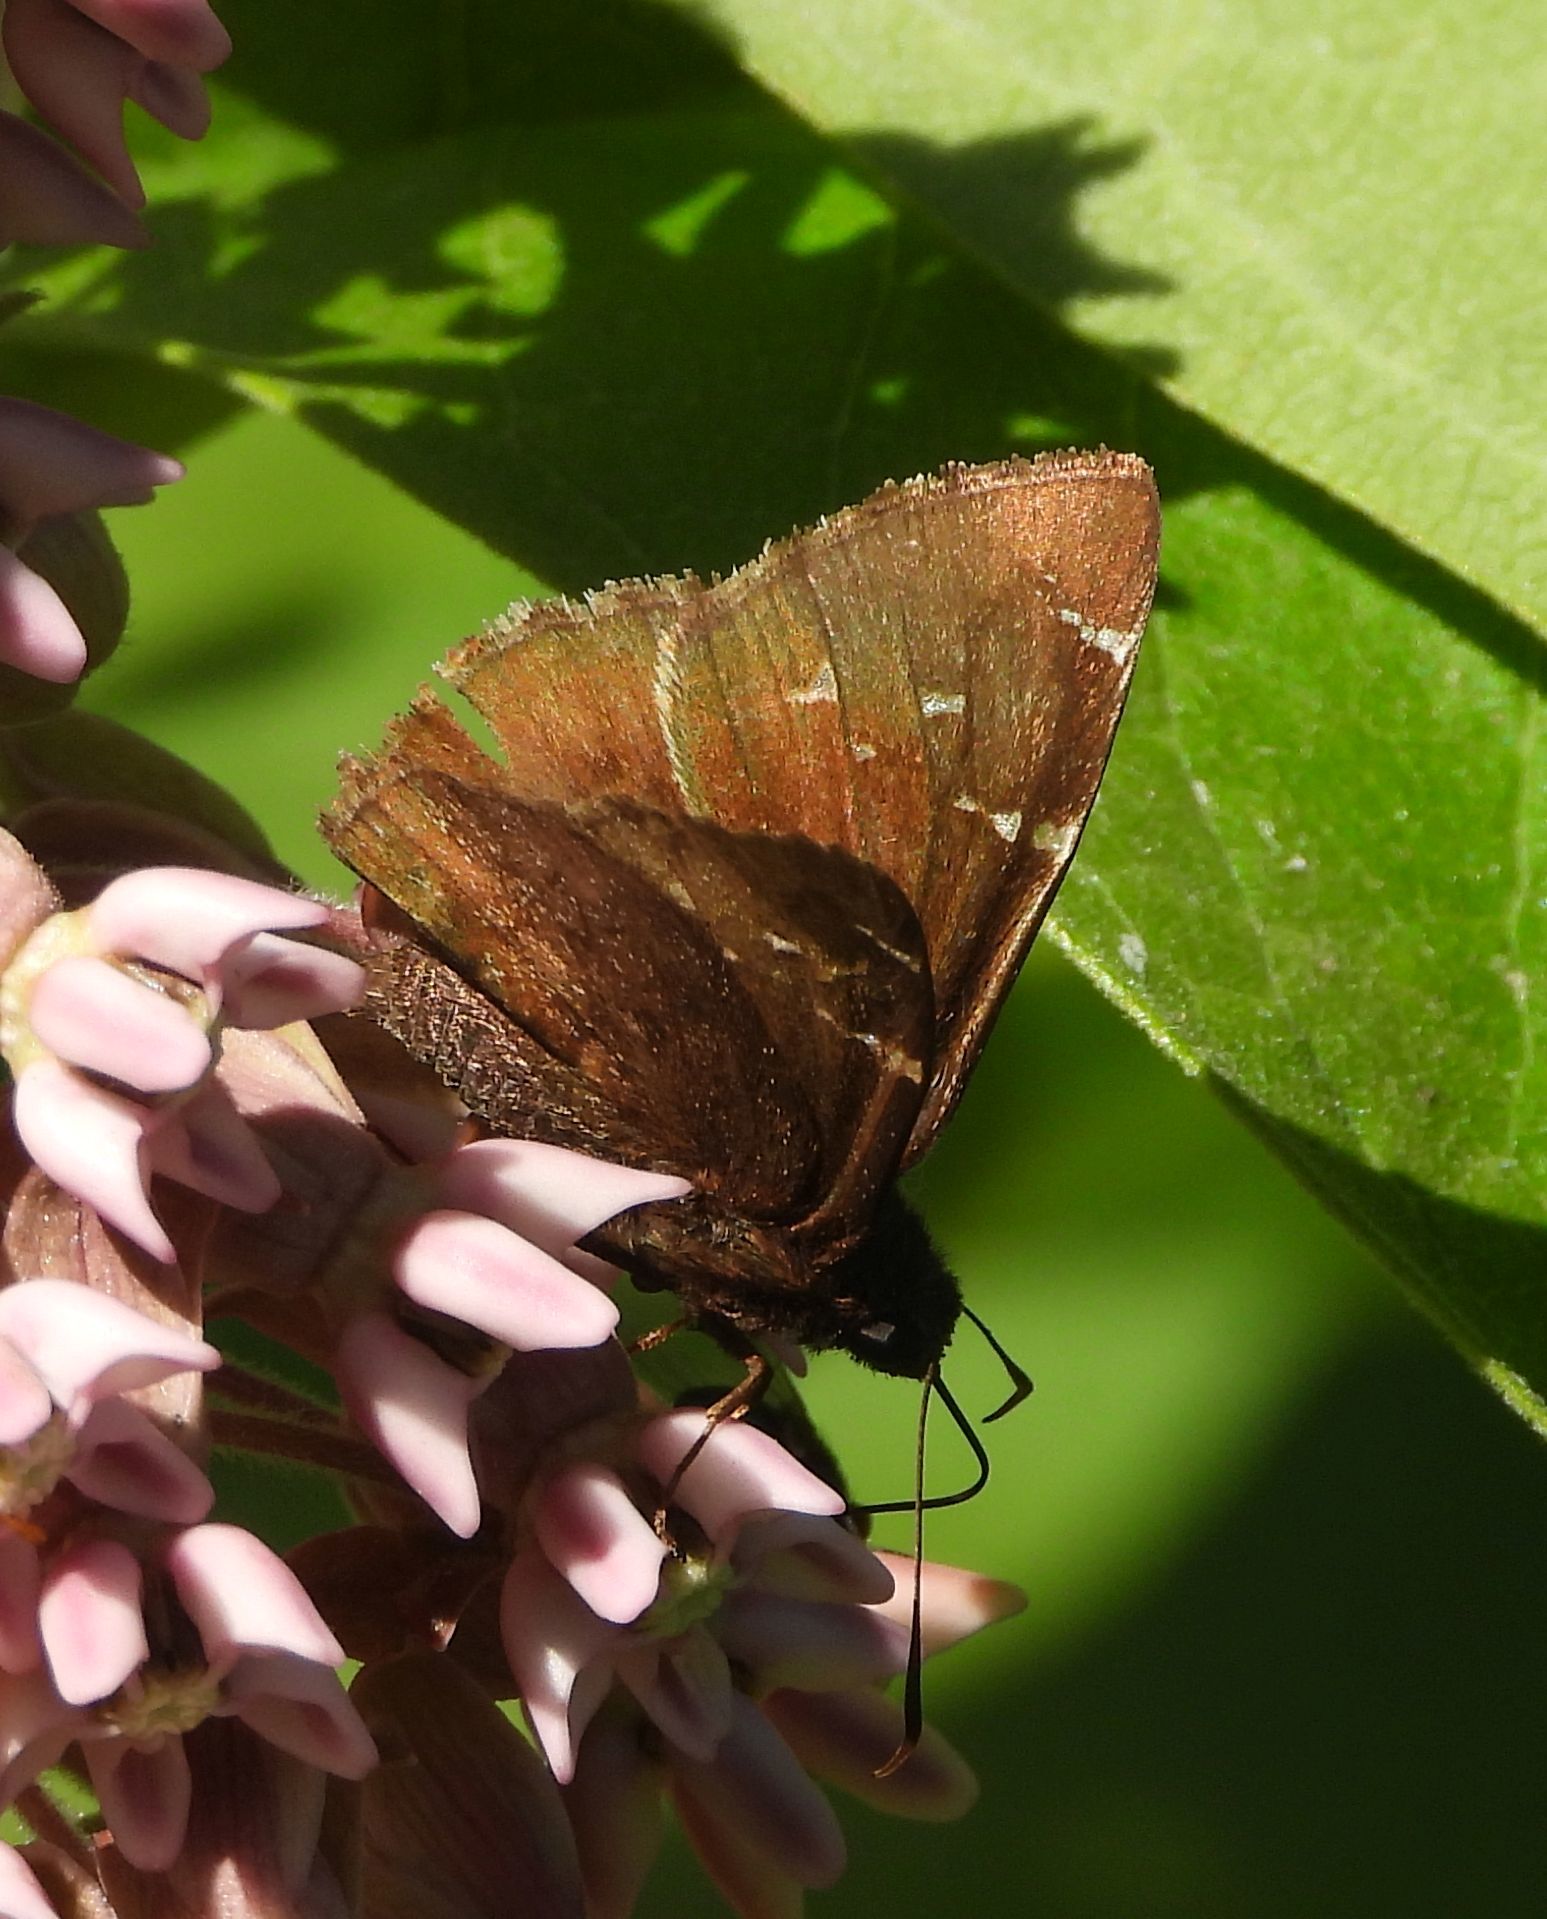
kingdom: Animalia
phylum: Arthropoda
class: Insecta
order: Lepidoptera
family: Hesperiidae
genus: Thorybes
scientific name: Thorybes pylades
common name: Northern cloudywing
